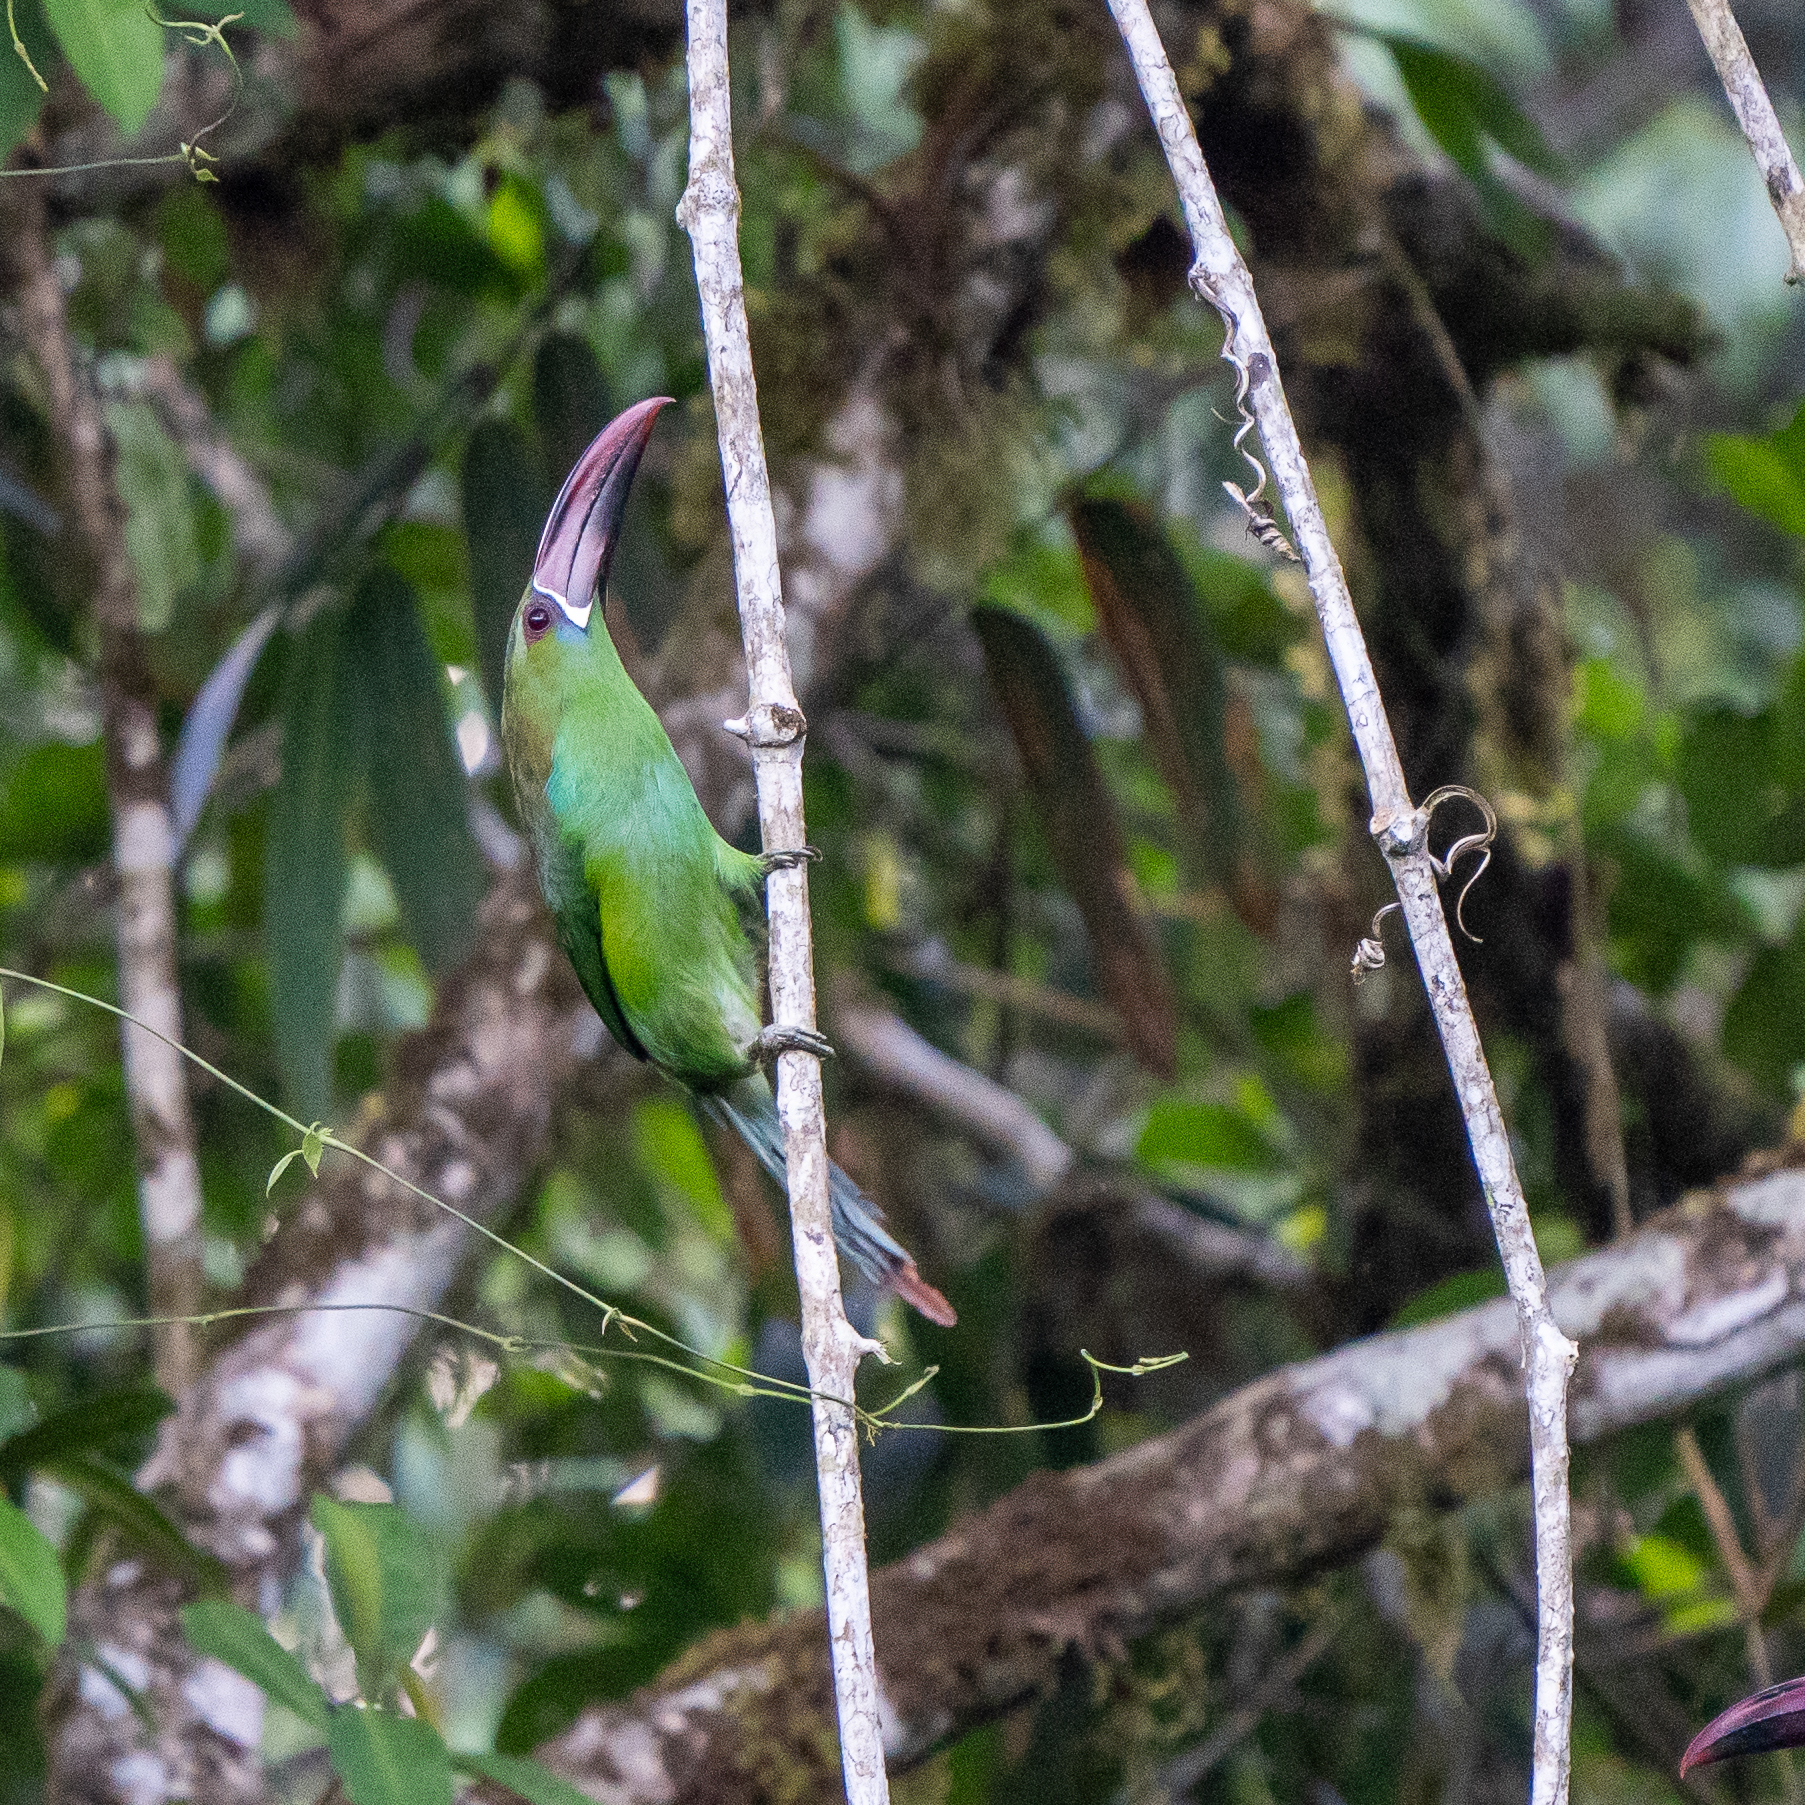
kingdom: Animalia
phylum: Chordata
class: Aves
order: Piciformes
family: Ramphastidae
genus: Aulacorhynchus
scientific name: Aulacorhynchus haematopygus
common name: Crimson-rumped toucanet
